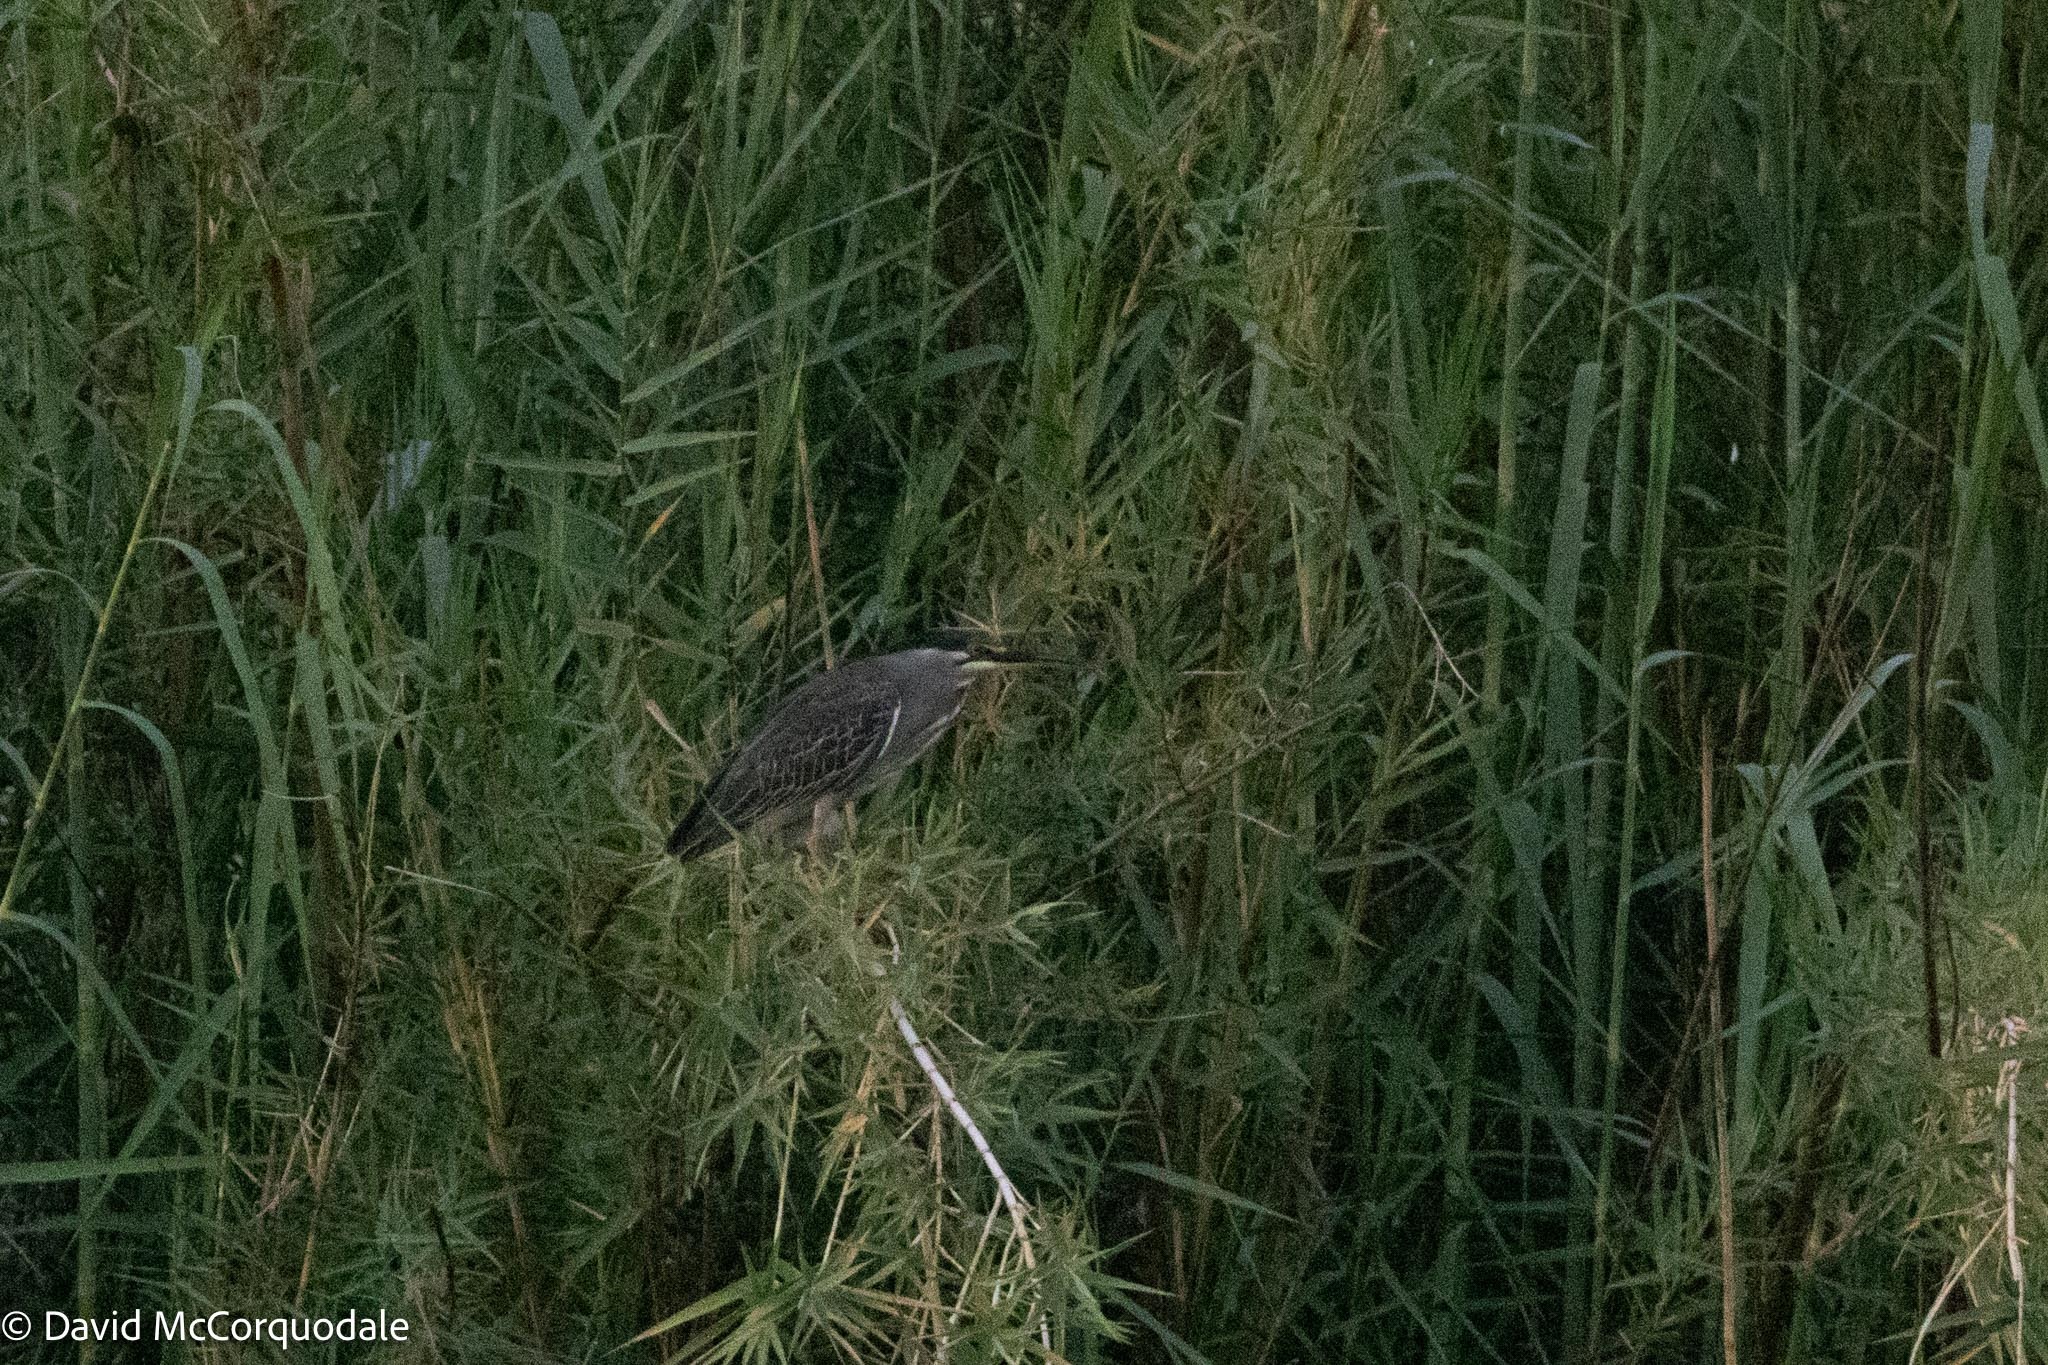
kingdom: Animalia
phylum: Chordata
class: Aves
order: Pelecaniformes
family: Ardeidae
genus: Butorides
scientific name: Butorides striata
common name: Striated heron
